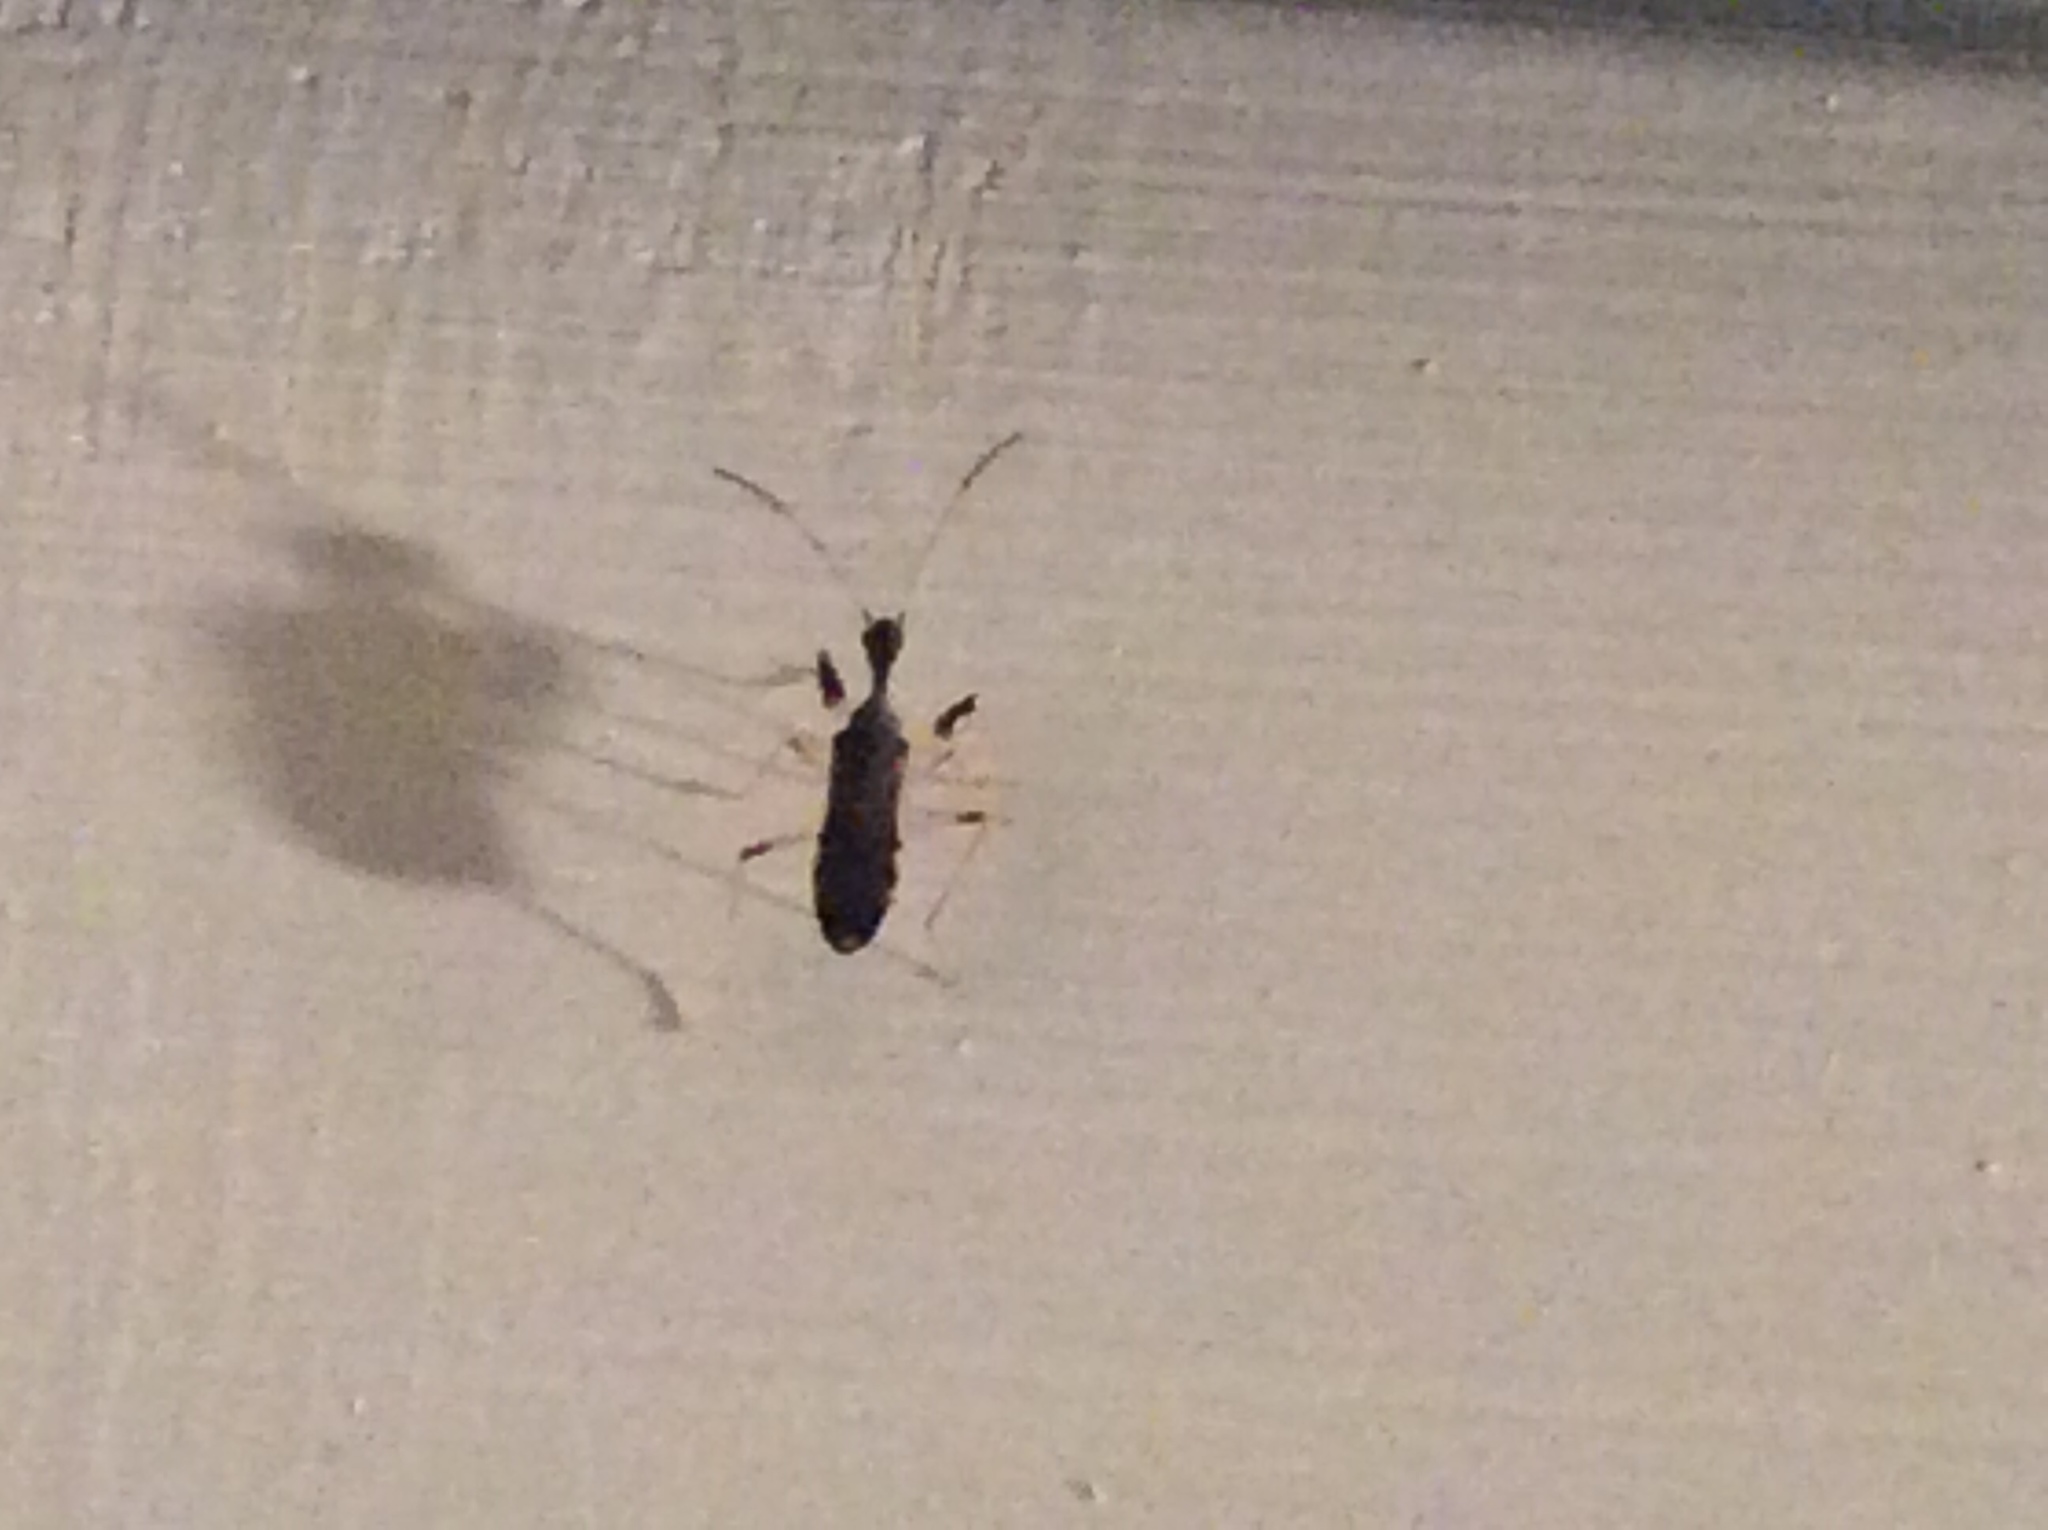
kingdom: Animalia
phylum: Arthropoda
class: Insecta
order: Hemiptera
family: Rhyparochromidae
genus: Myodocha
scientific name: Myodocha serripes
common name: Long-necked seed bug
